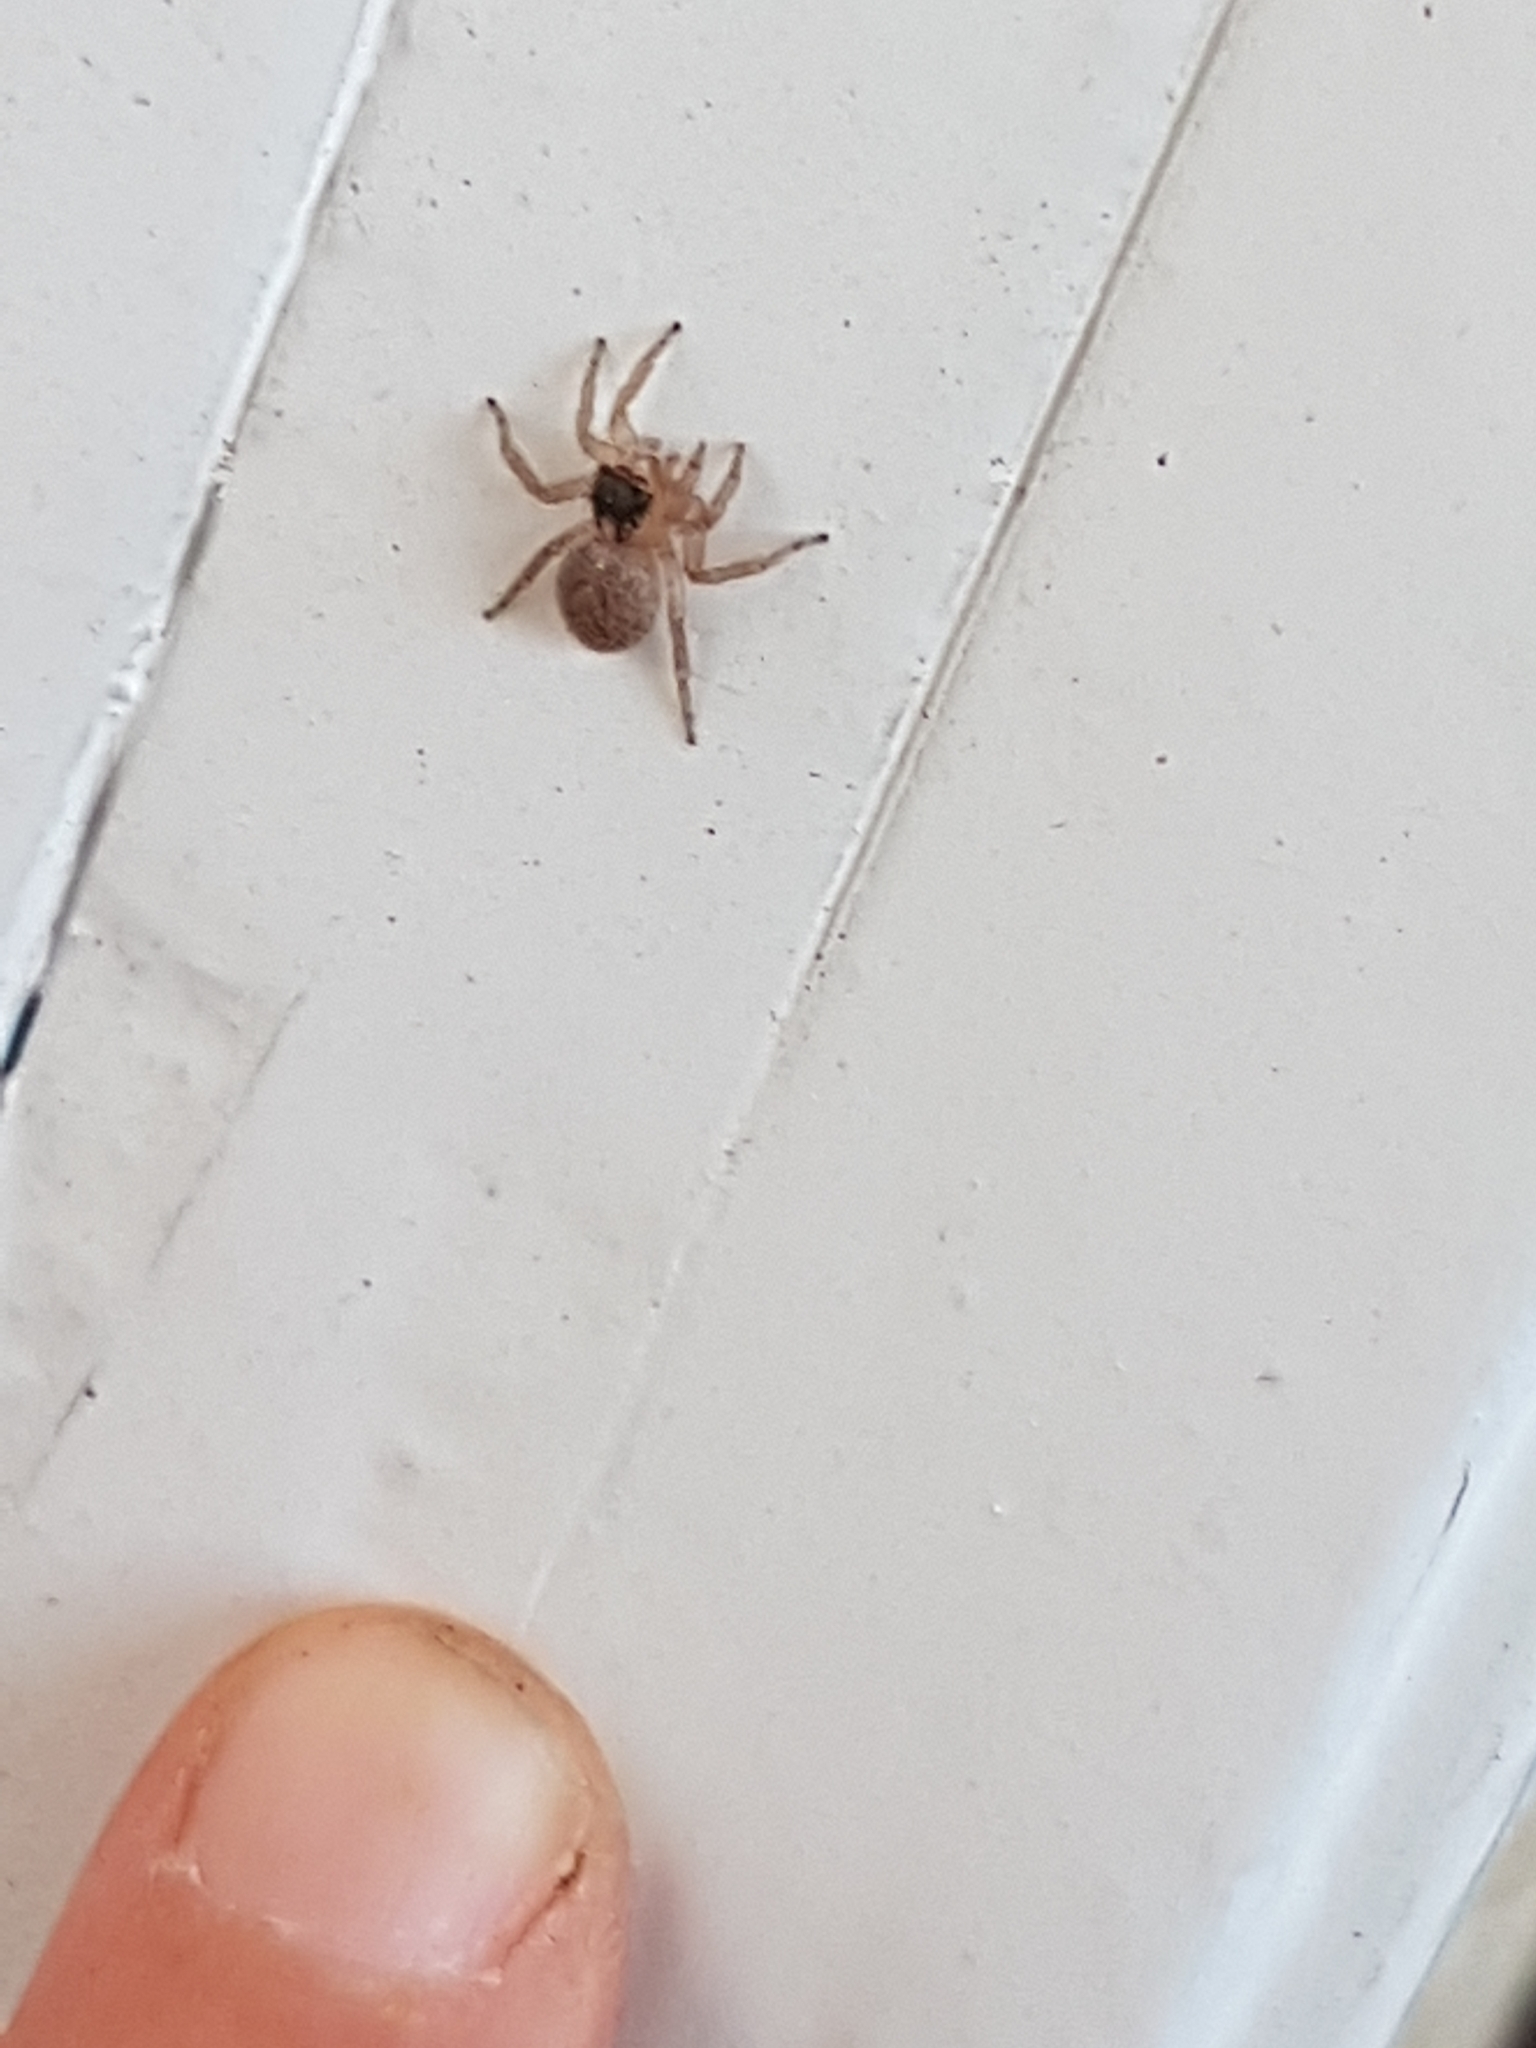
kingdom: Animalia
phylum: Arthropoda
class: Arachnida
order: Araneae
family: Salticidae
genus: Saitis
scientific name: Saitis barbipes
